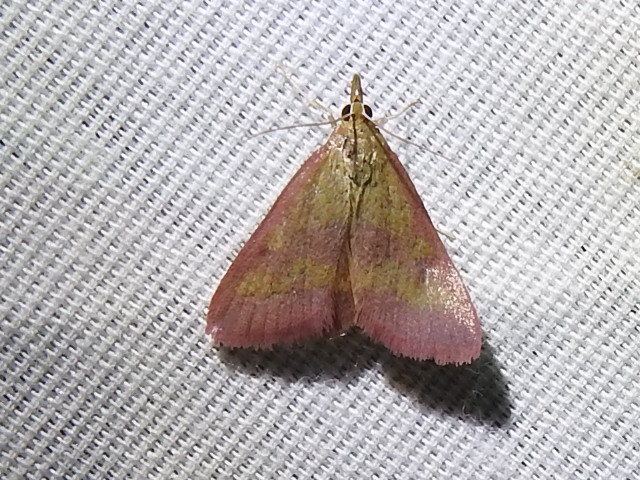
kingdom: Animalia
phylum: Arthropoda
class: Insecta
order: Lepidoptera
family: Crambidae
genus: Pyrausta
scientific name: Pyrausta laticlavia
